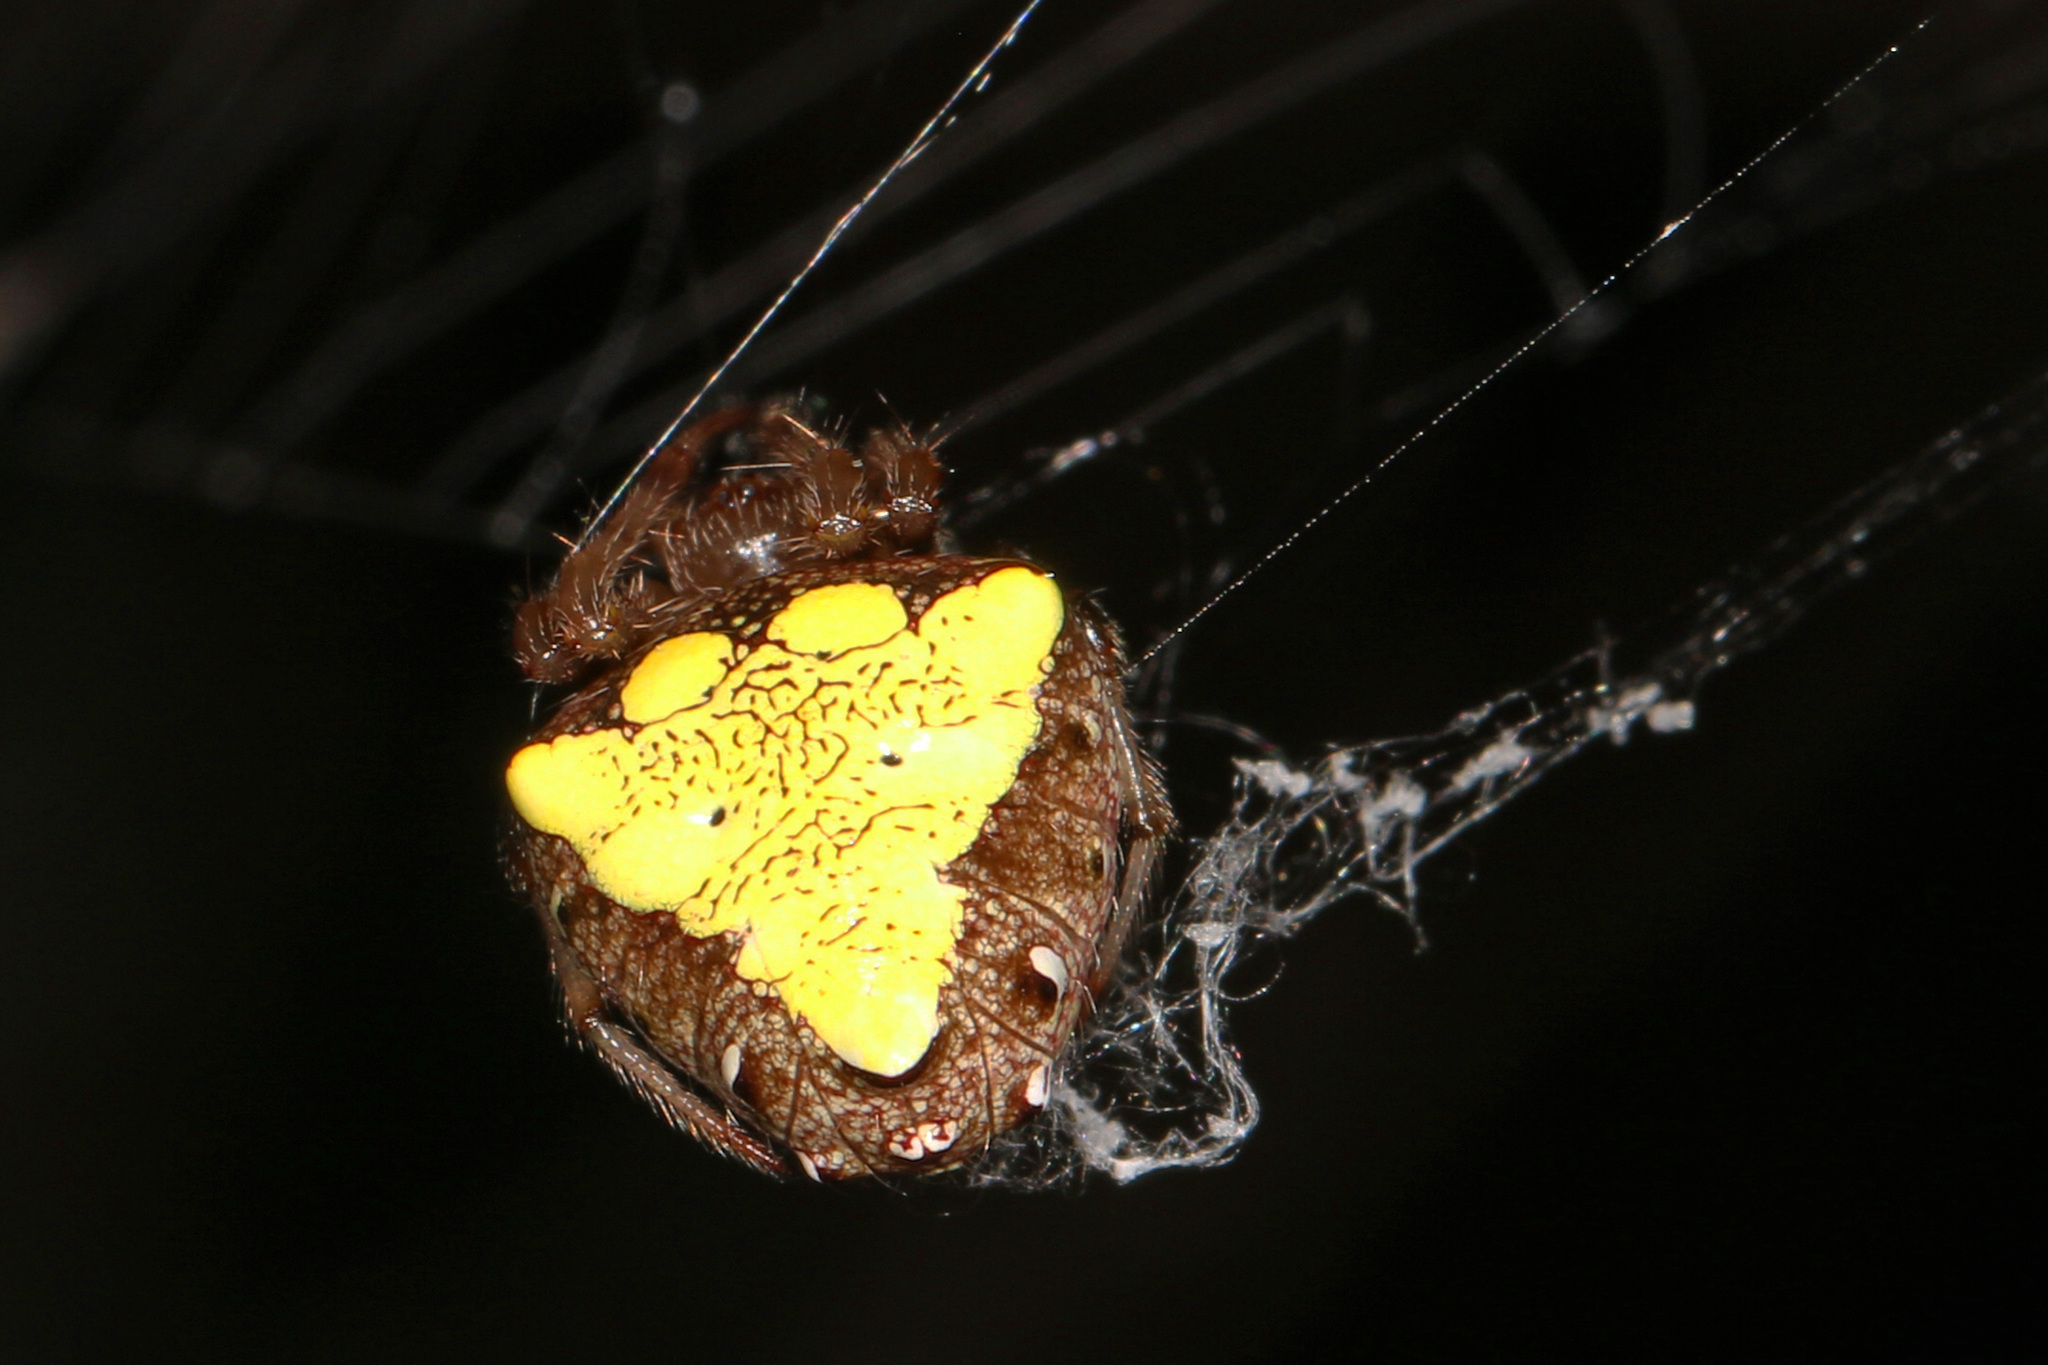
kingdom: Animalia
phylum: Arthropoda
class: Arachnida
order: Araneae
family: Araneidae
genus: Verrucosa
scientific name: Verrucosa arenata
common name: Orb weavers
